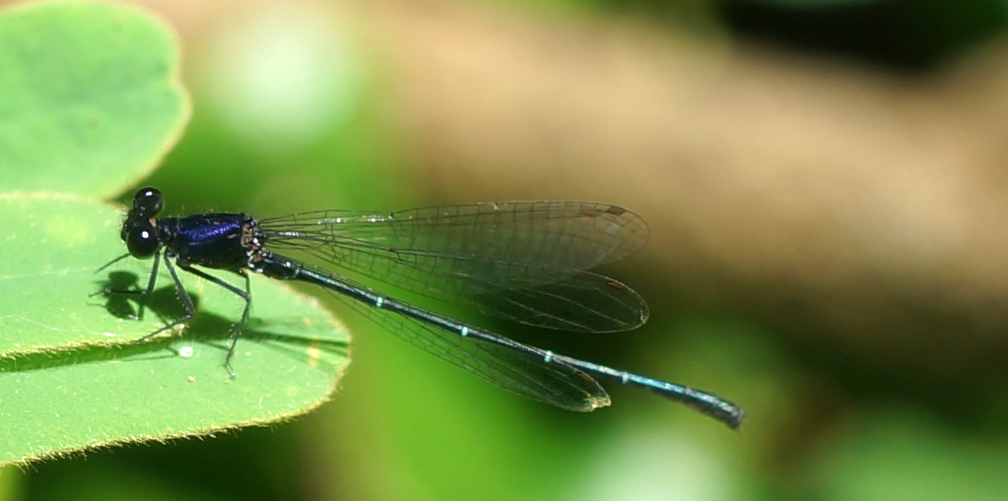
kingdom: Animalia
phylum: Arthropoda
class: Insecta
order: Odonata
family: Platycnemididae
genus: Onychargia
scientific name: Onychargia atrocyana
